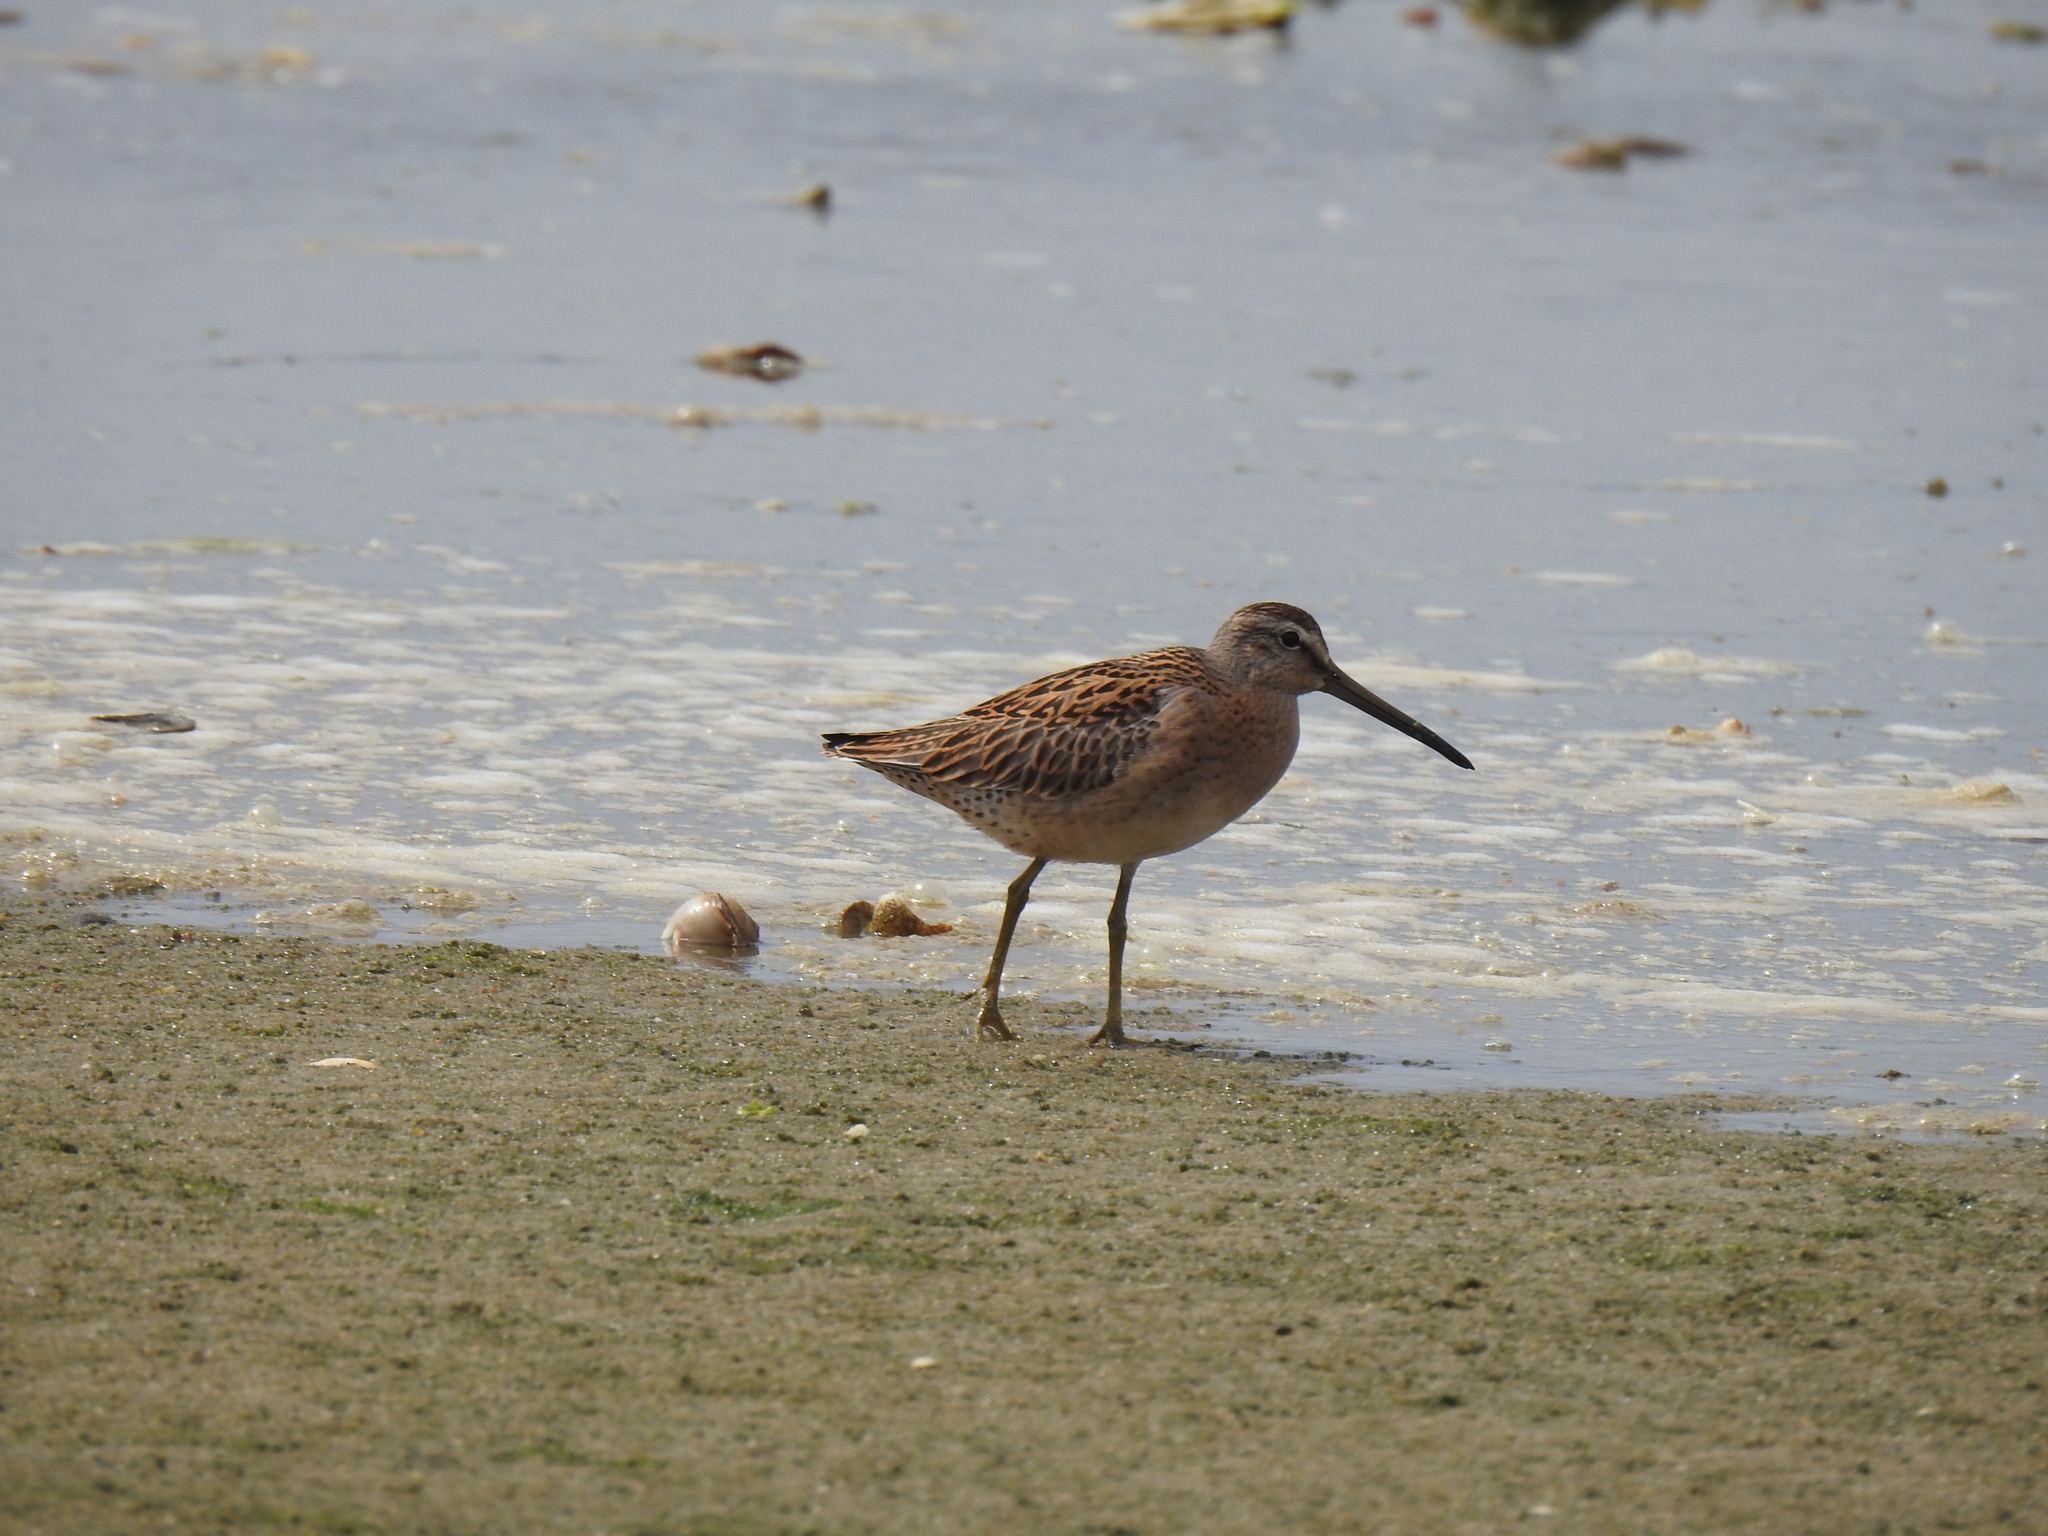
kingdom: Animalia
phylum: Chordata
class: Aves
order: Charadriiformes
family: Scolopacidae
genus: Limnodromus
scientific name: Limnodromus griseus
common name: Short-billed dowitcher
